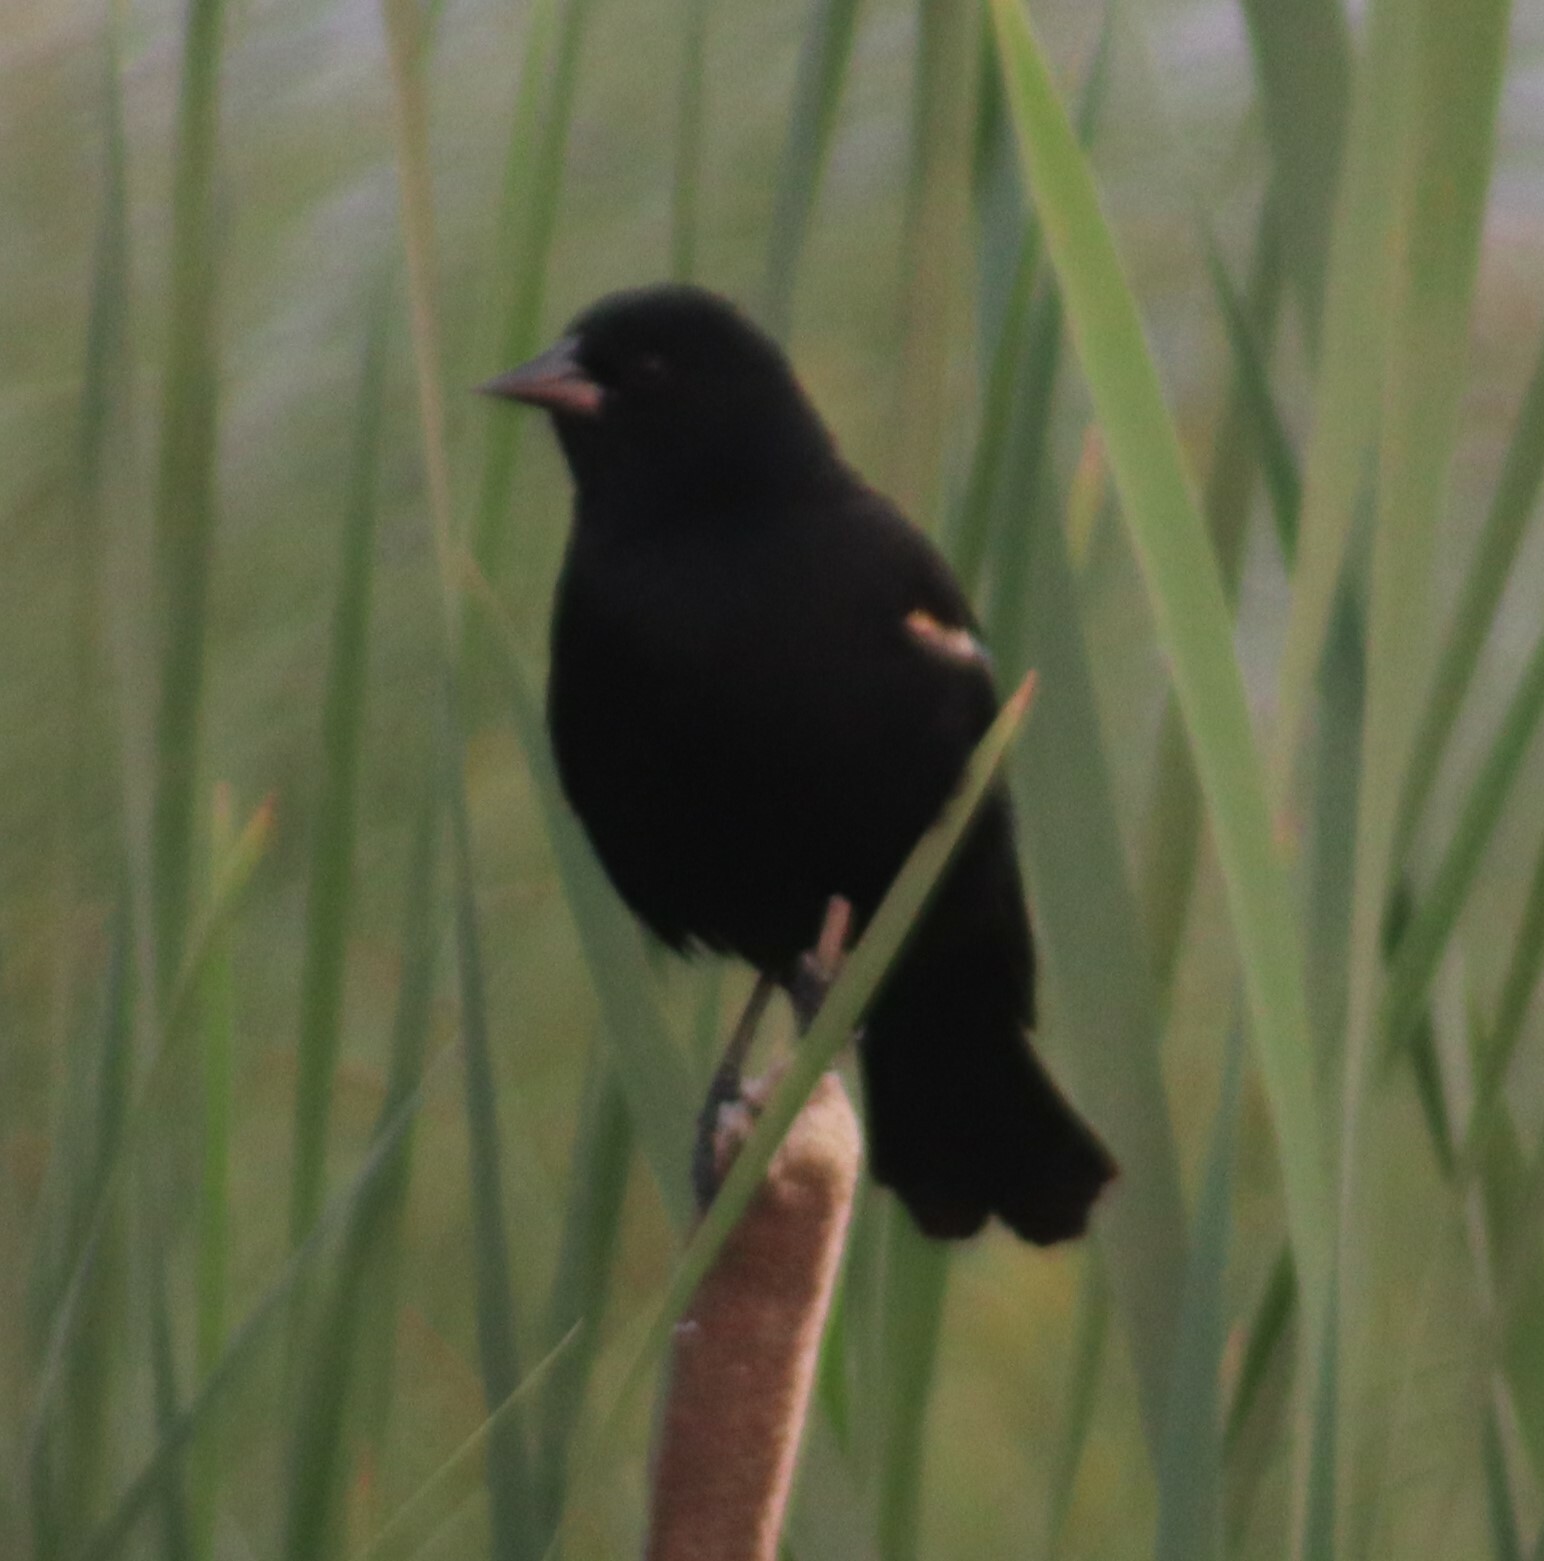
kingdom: Animalia
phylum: Chordata
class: Aves
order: Passeriformes
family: Icteridae
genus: Agelaius
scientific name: Agelaius phoeniceus
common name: Red-winged blackbird
